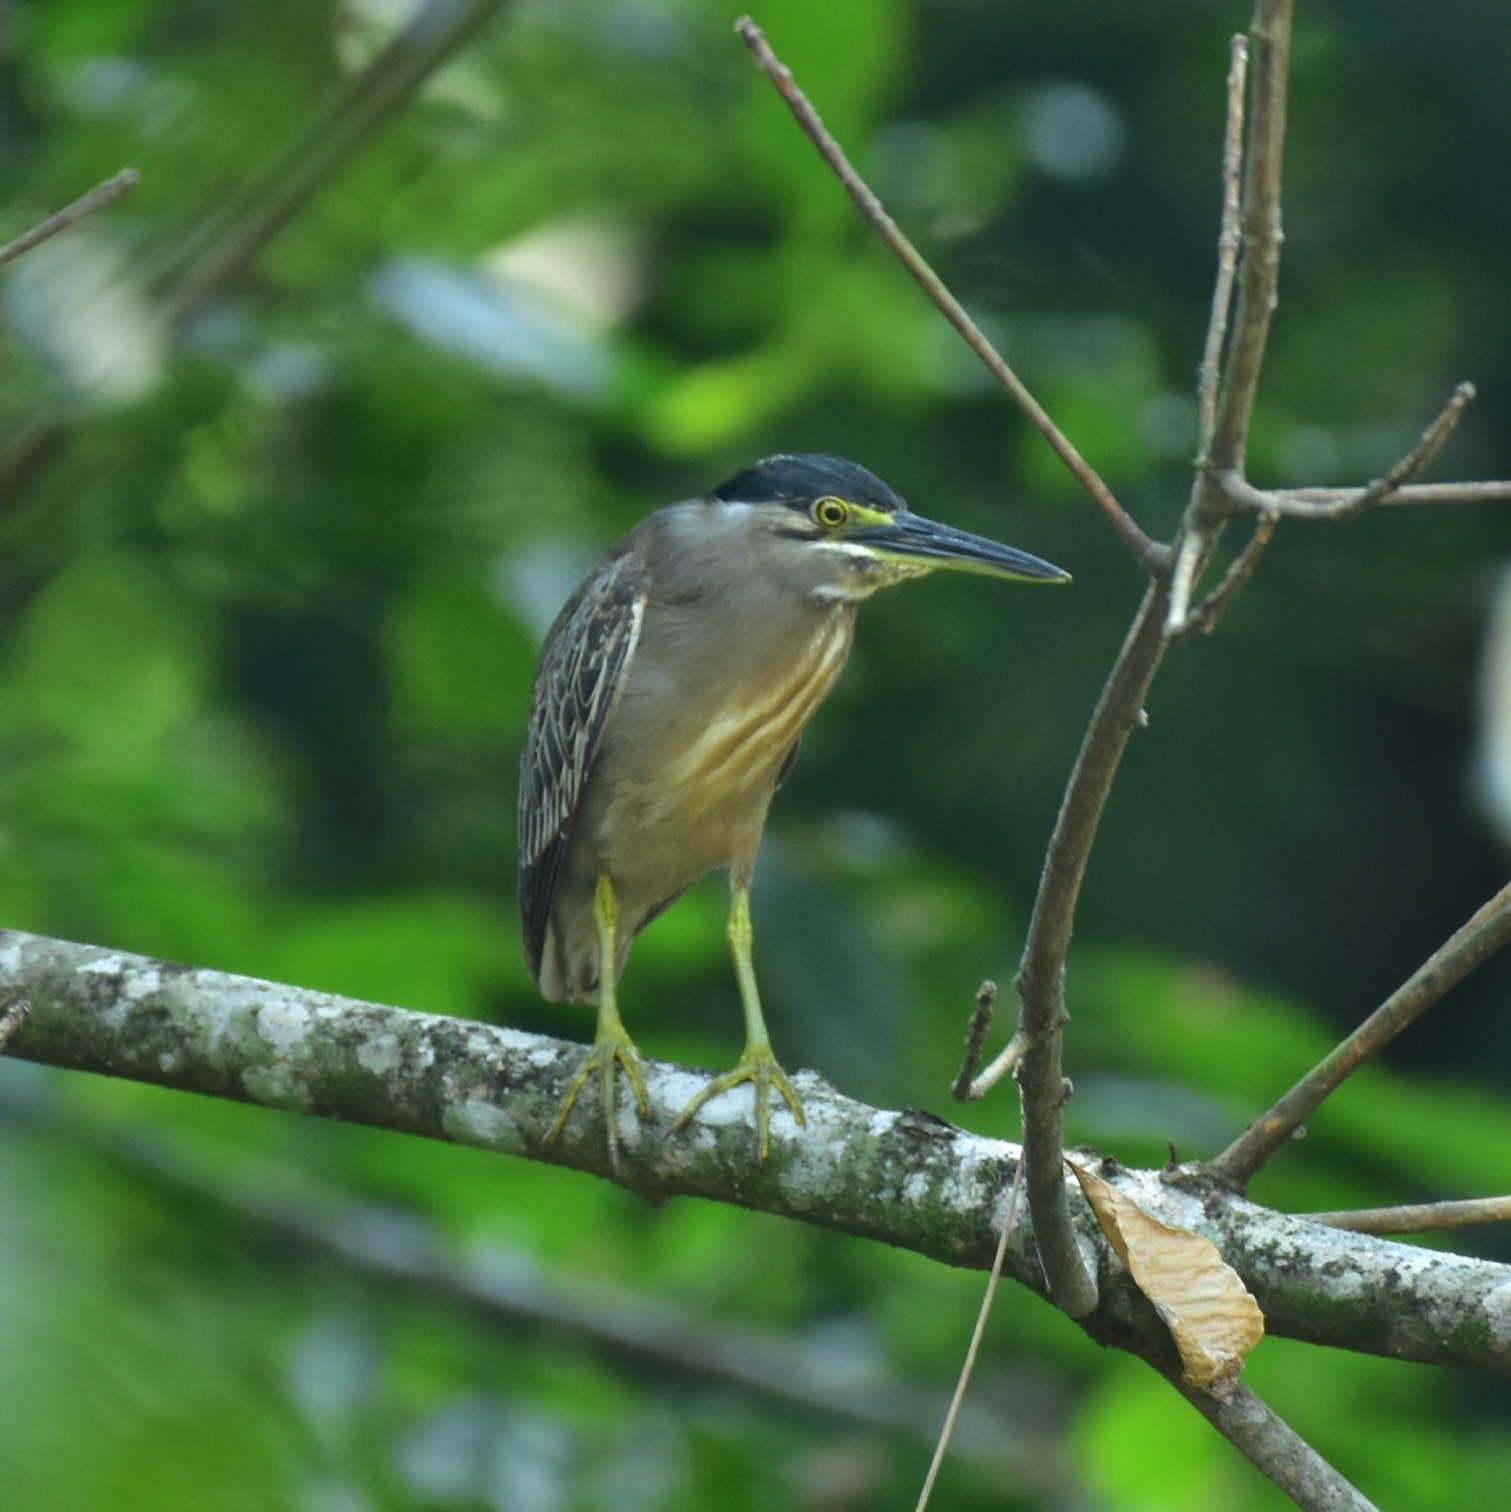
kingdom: Animalia
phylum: Chordata
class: Aves
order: Pelecaniformes
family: Ardeidae
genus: Butorides
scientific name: Butorides striata
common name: Striated heron
